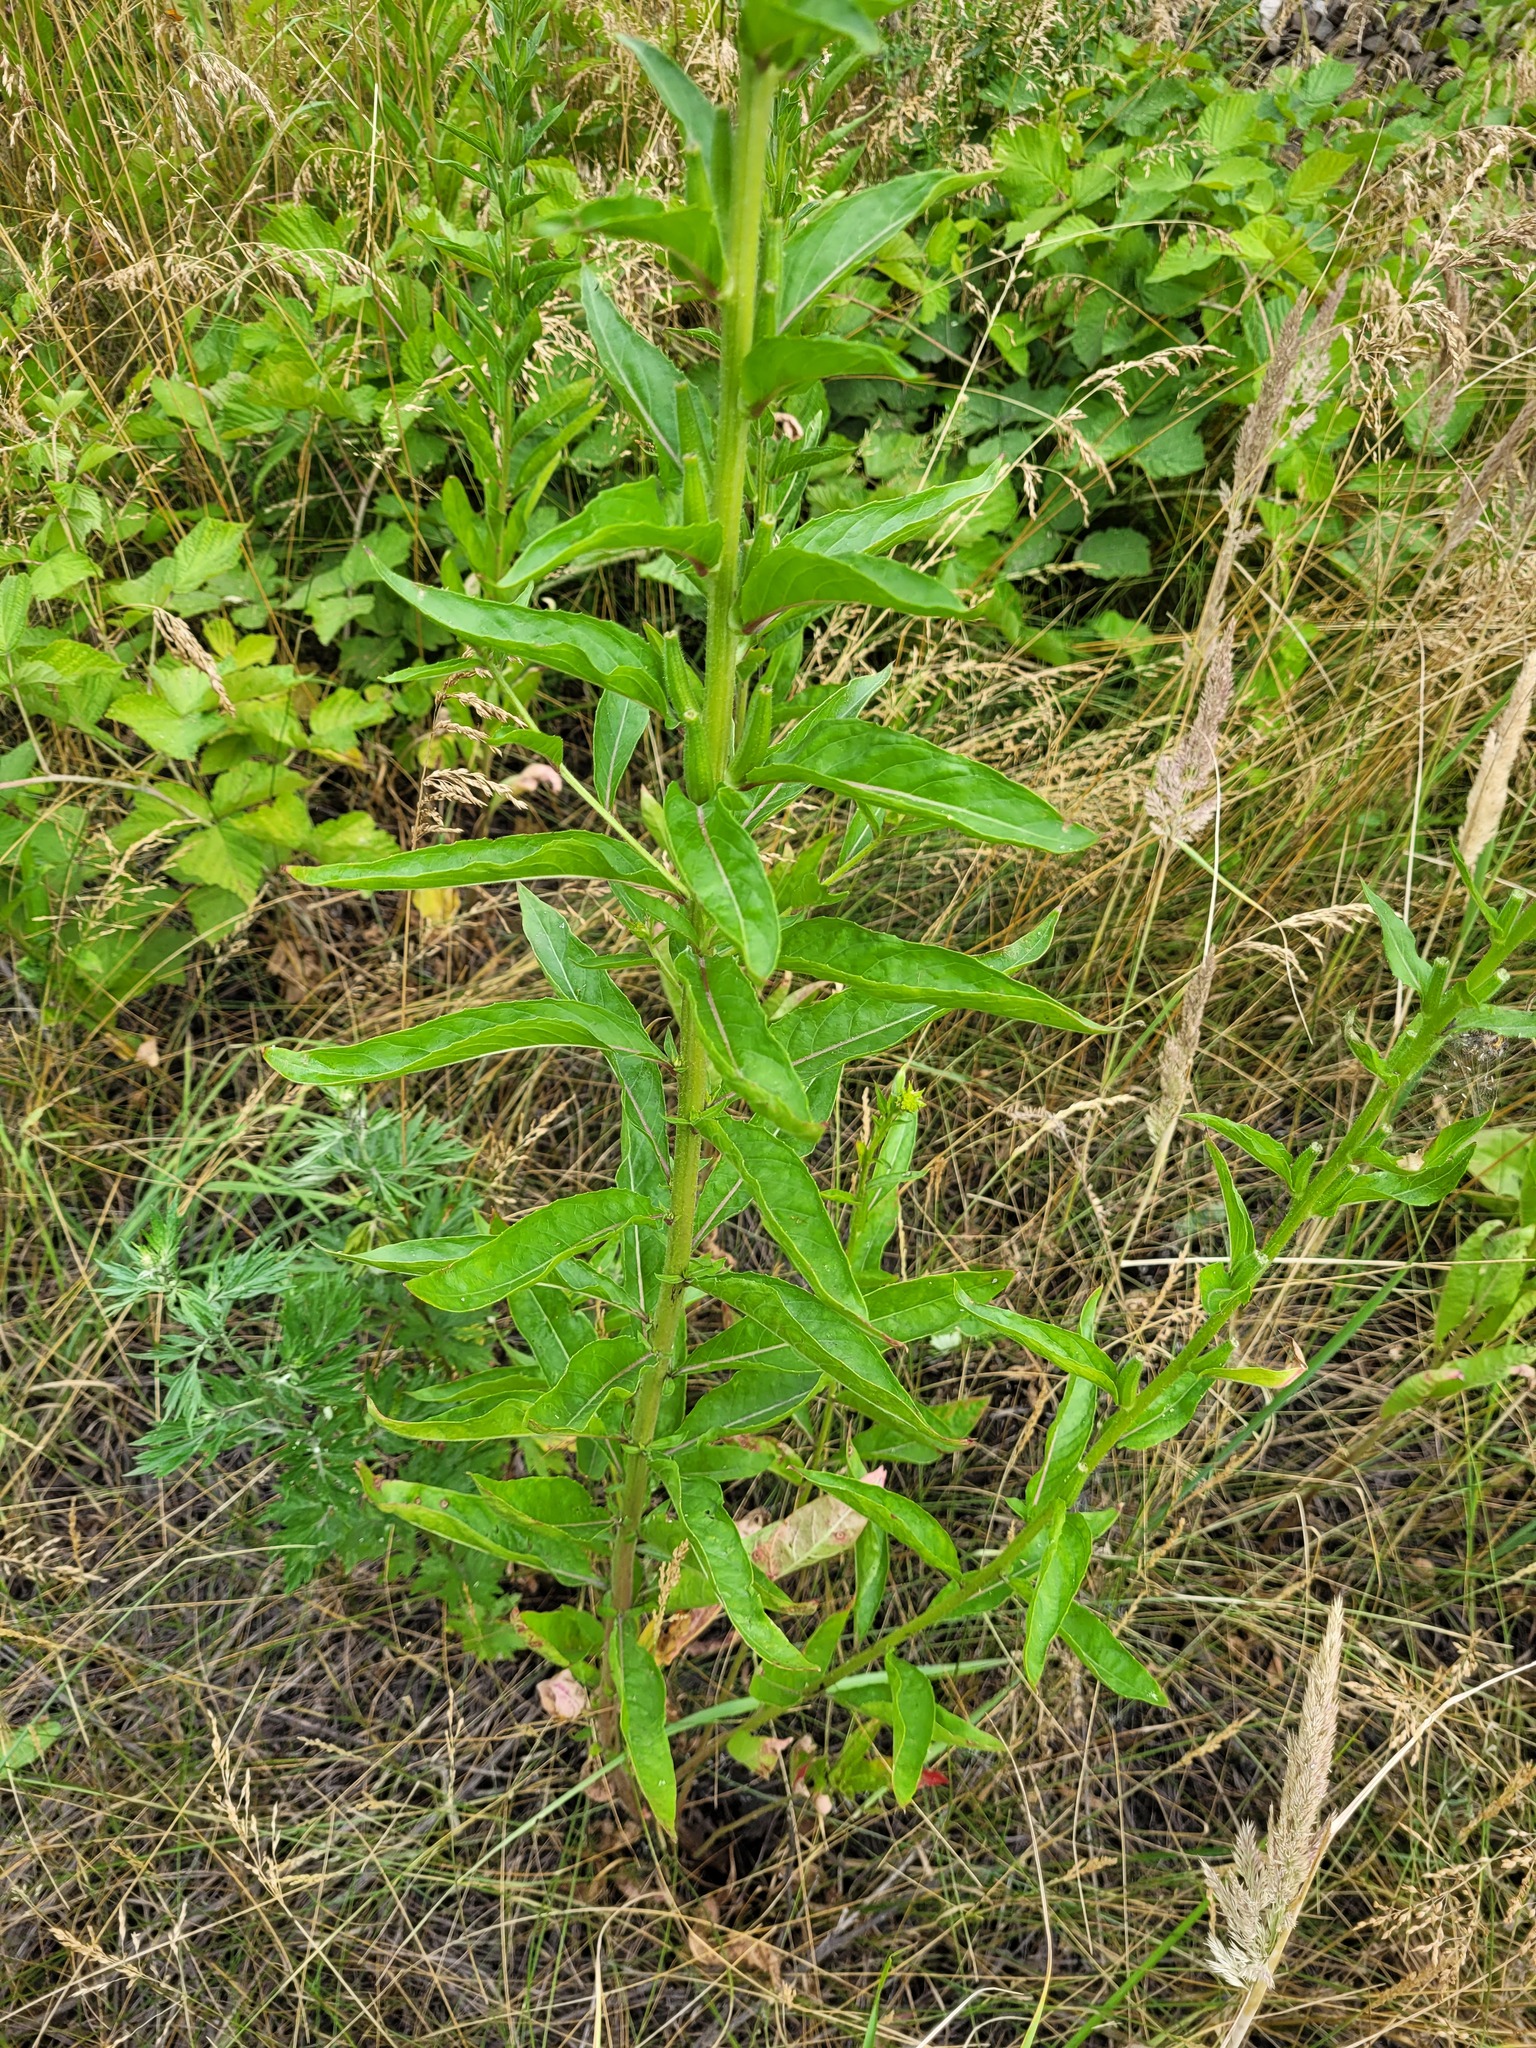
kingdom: Plantae
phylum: Tracheophyta
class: Magnoliopsida
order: Myrtales
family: Onagraceae
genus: Oenothera
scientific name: Oenothera biennis
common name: Common evening-primrose
